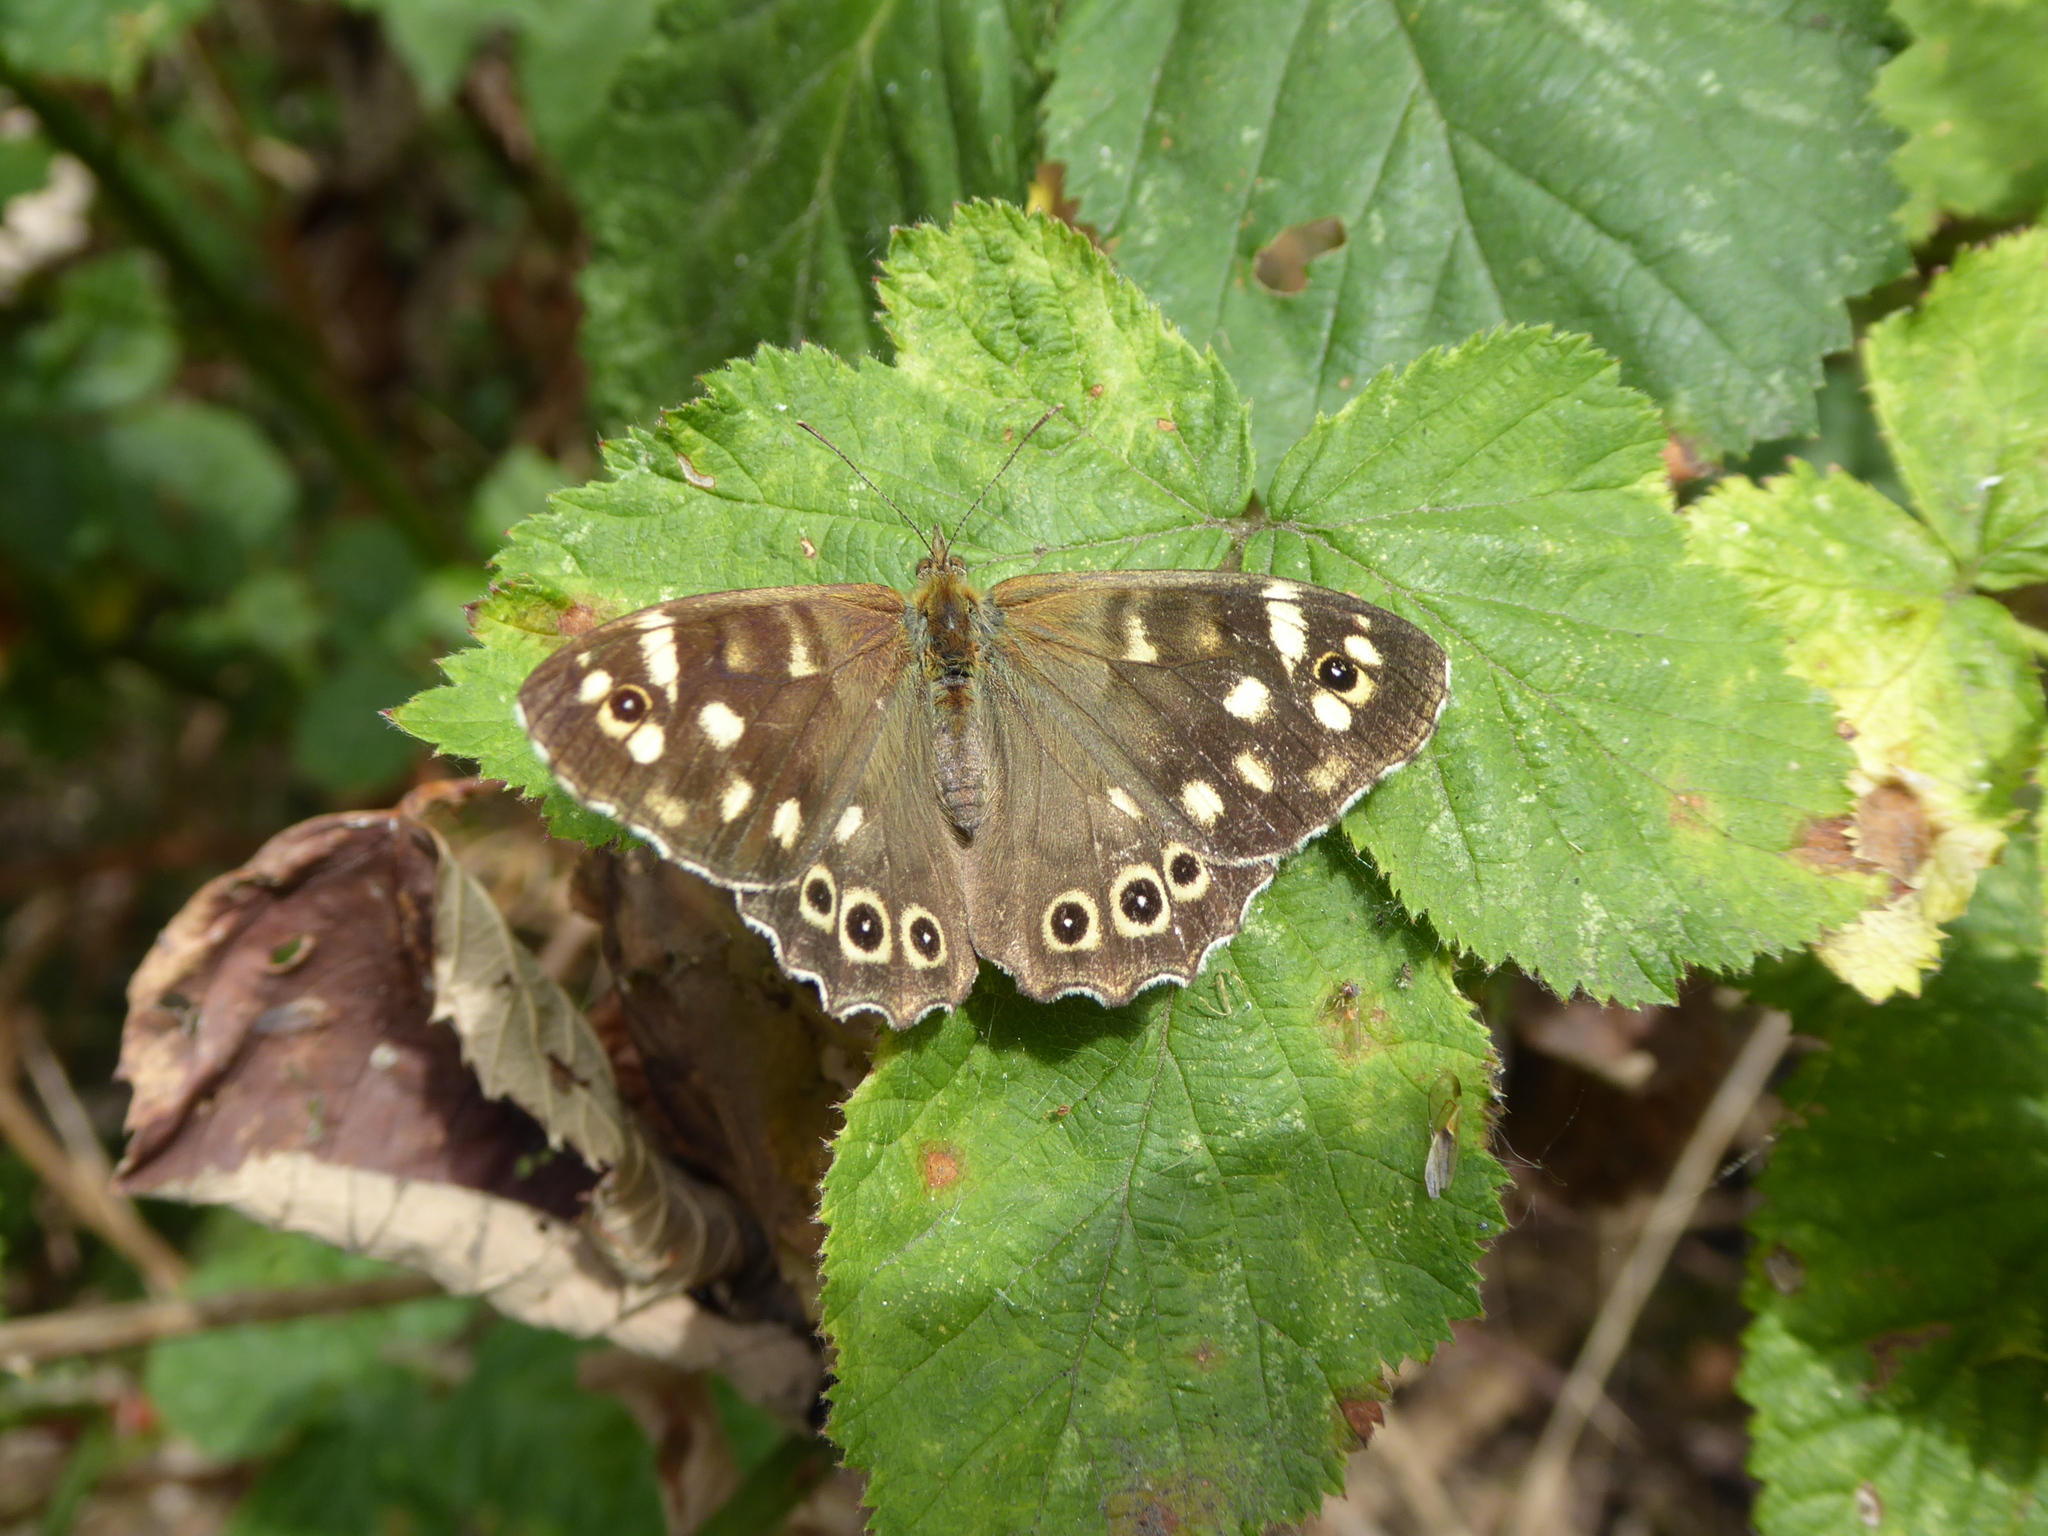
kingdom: Animalia
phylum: Arthropoda
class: Insecta
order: Lepidoptera
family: Nymphalidae
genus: Pararge
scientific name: Pararge aegeria
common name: Speckled wood
